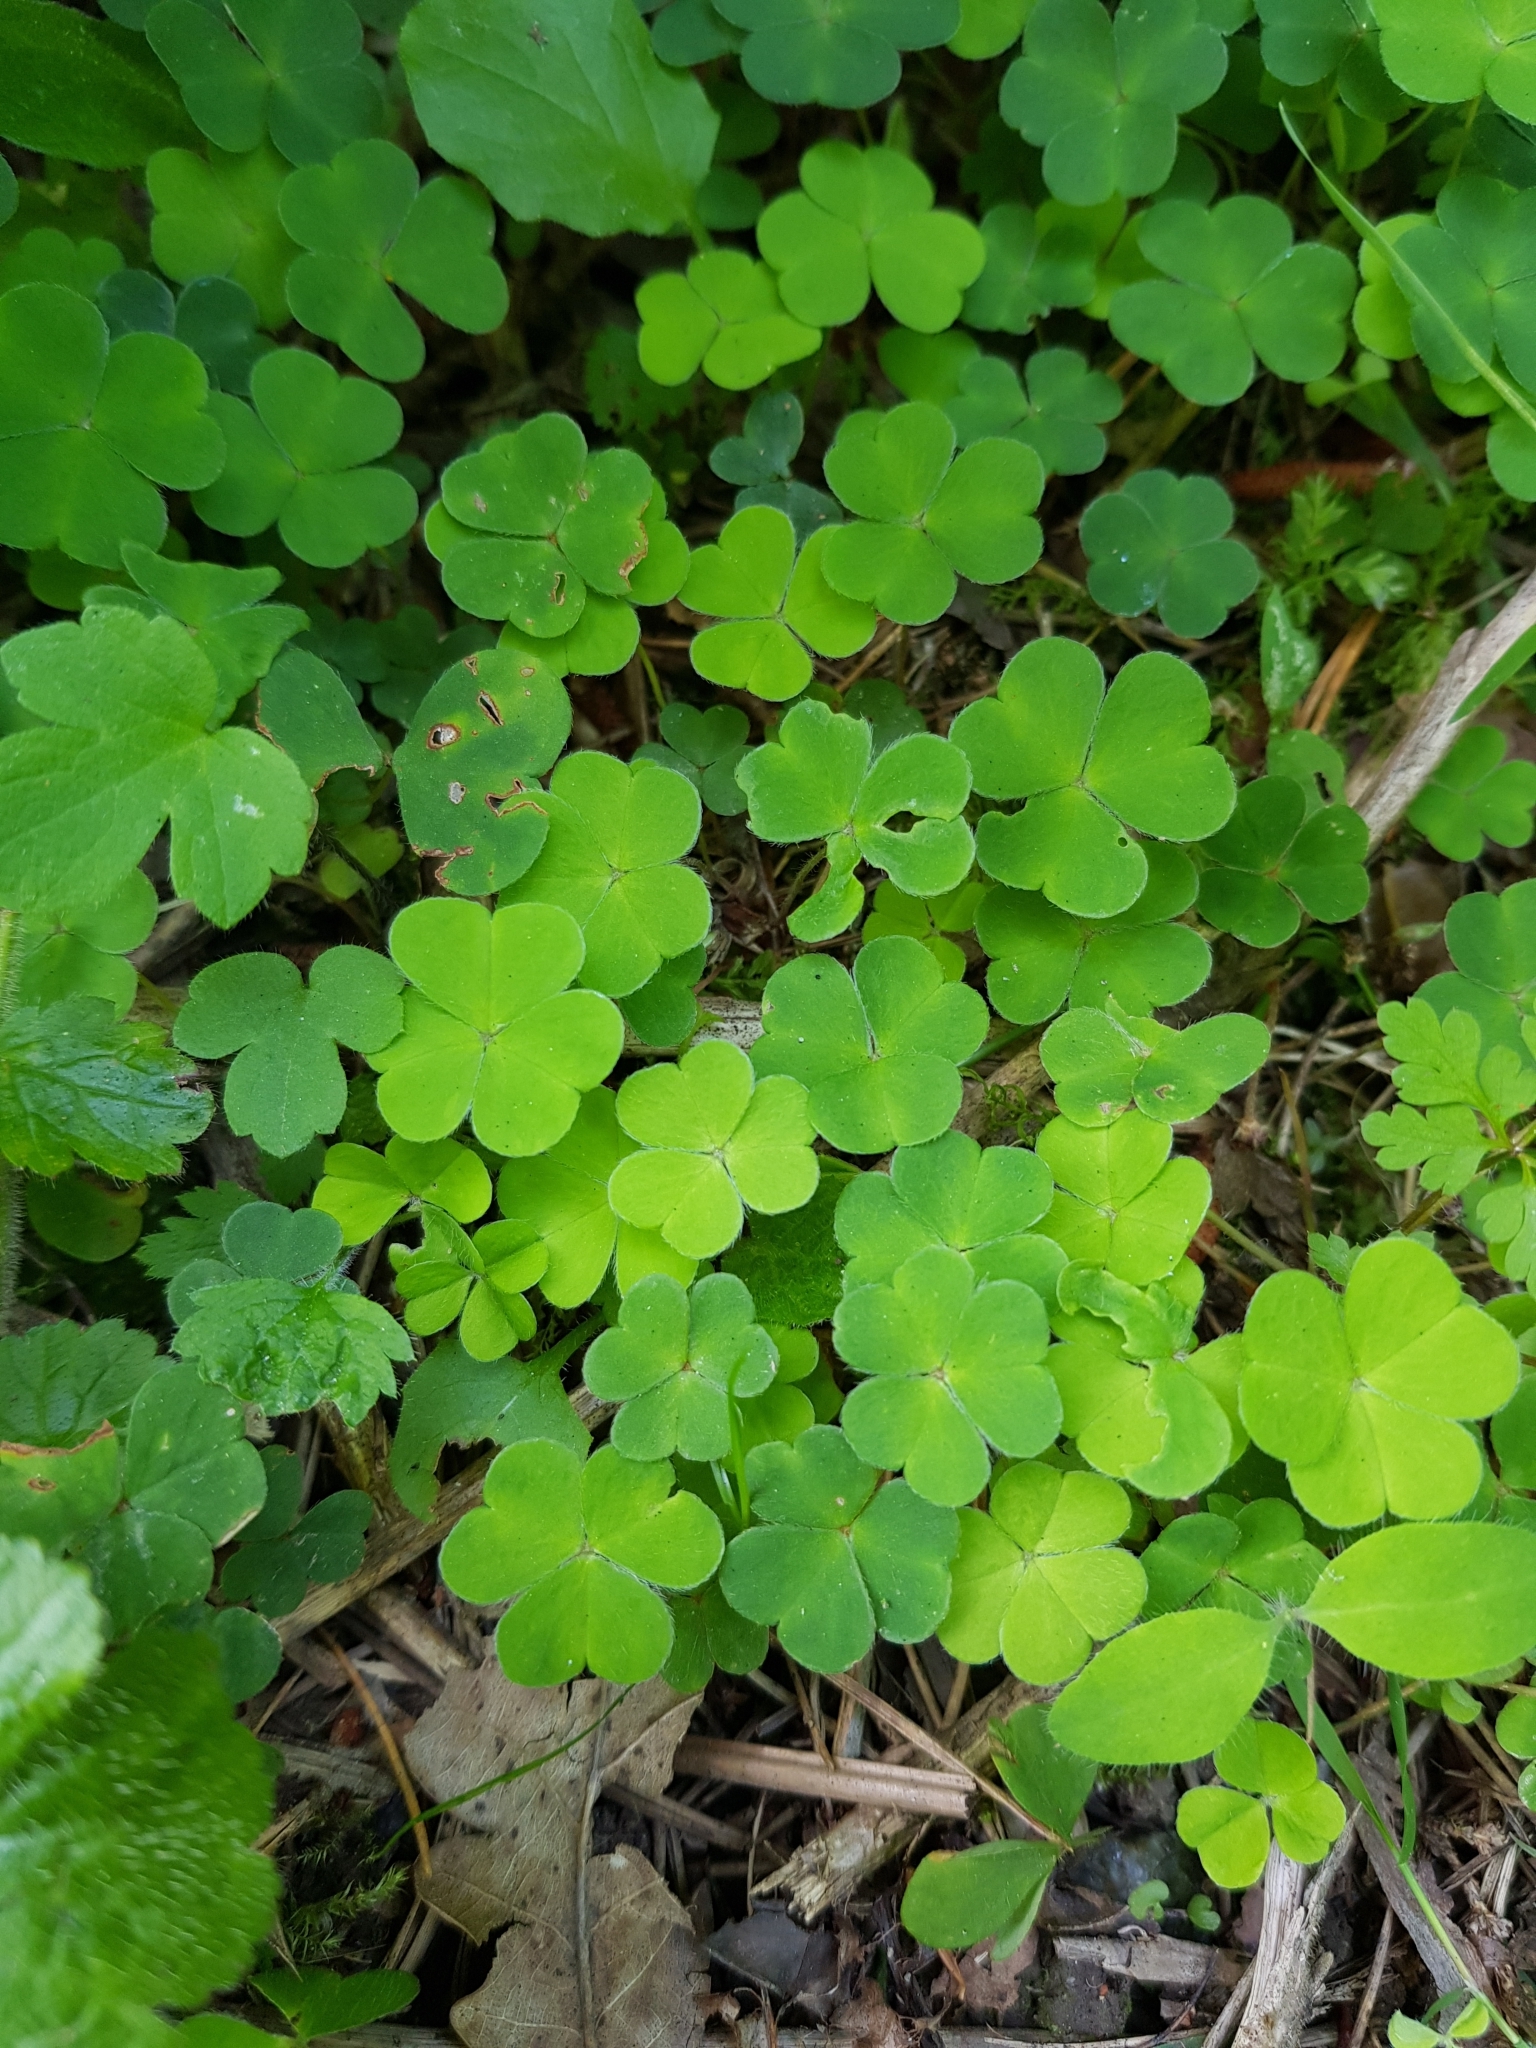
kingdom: Plantae
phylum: Tracheophyta
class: Magnoliopsida
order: Oxalidales
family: Oxalidaceae
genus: Oxalis
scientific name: Oxalis acetosella
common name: Wood-sorrel
